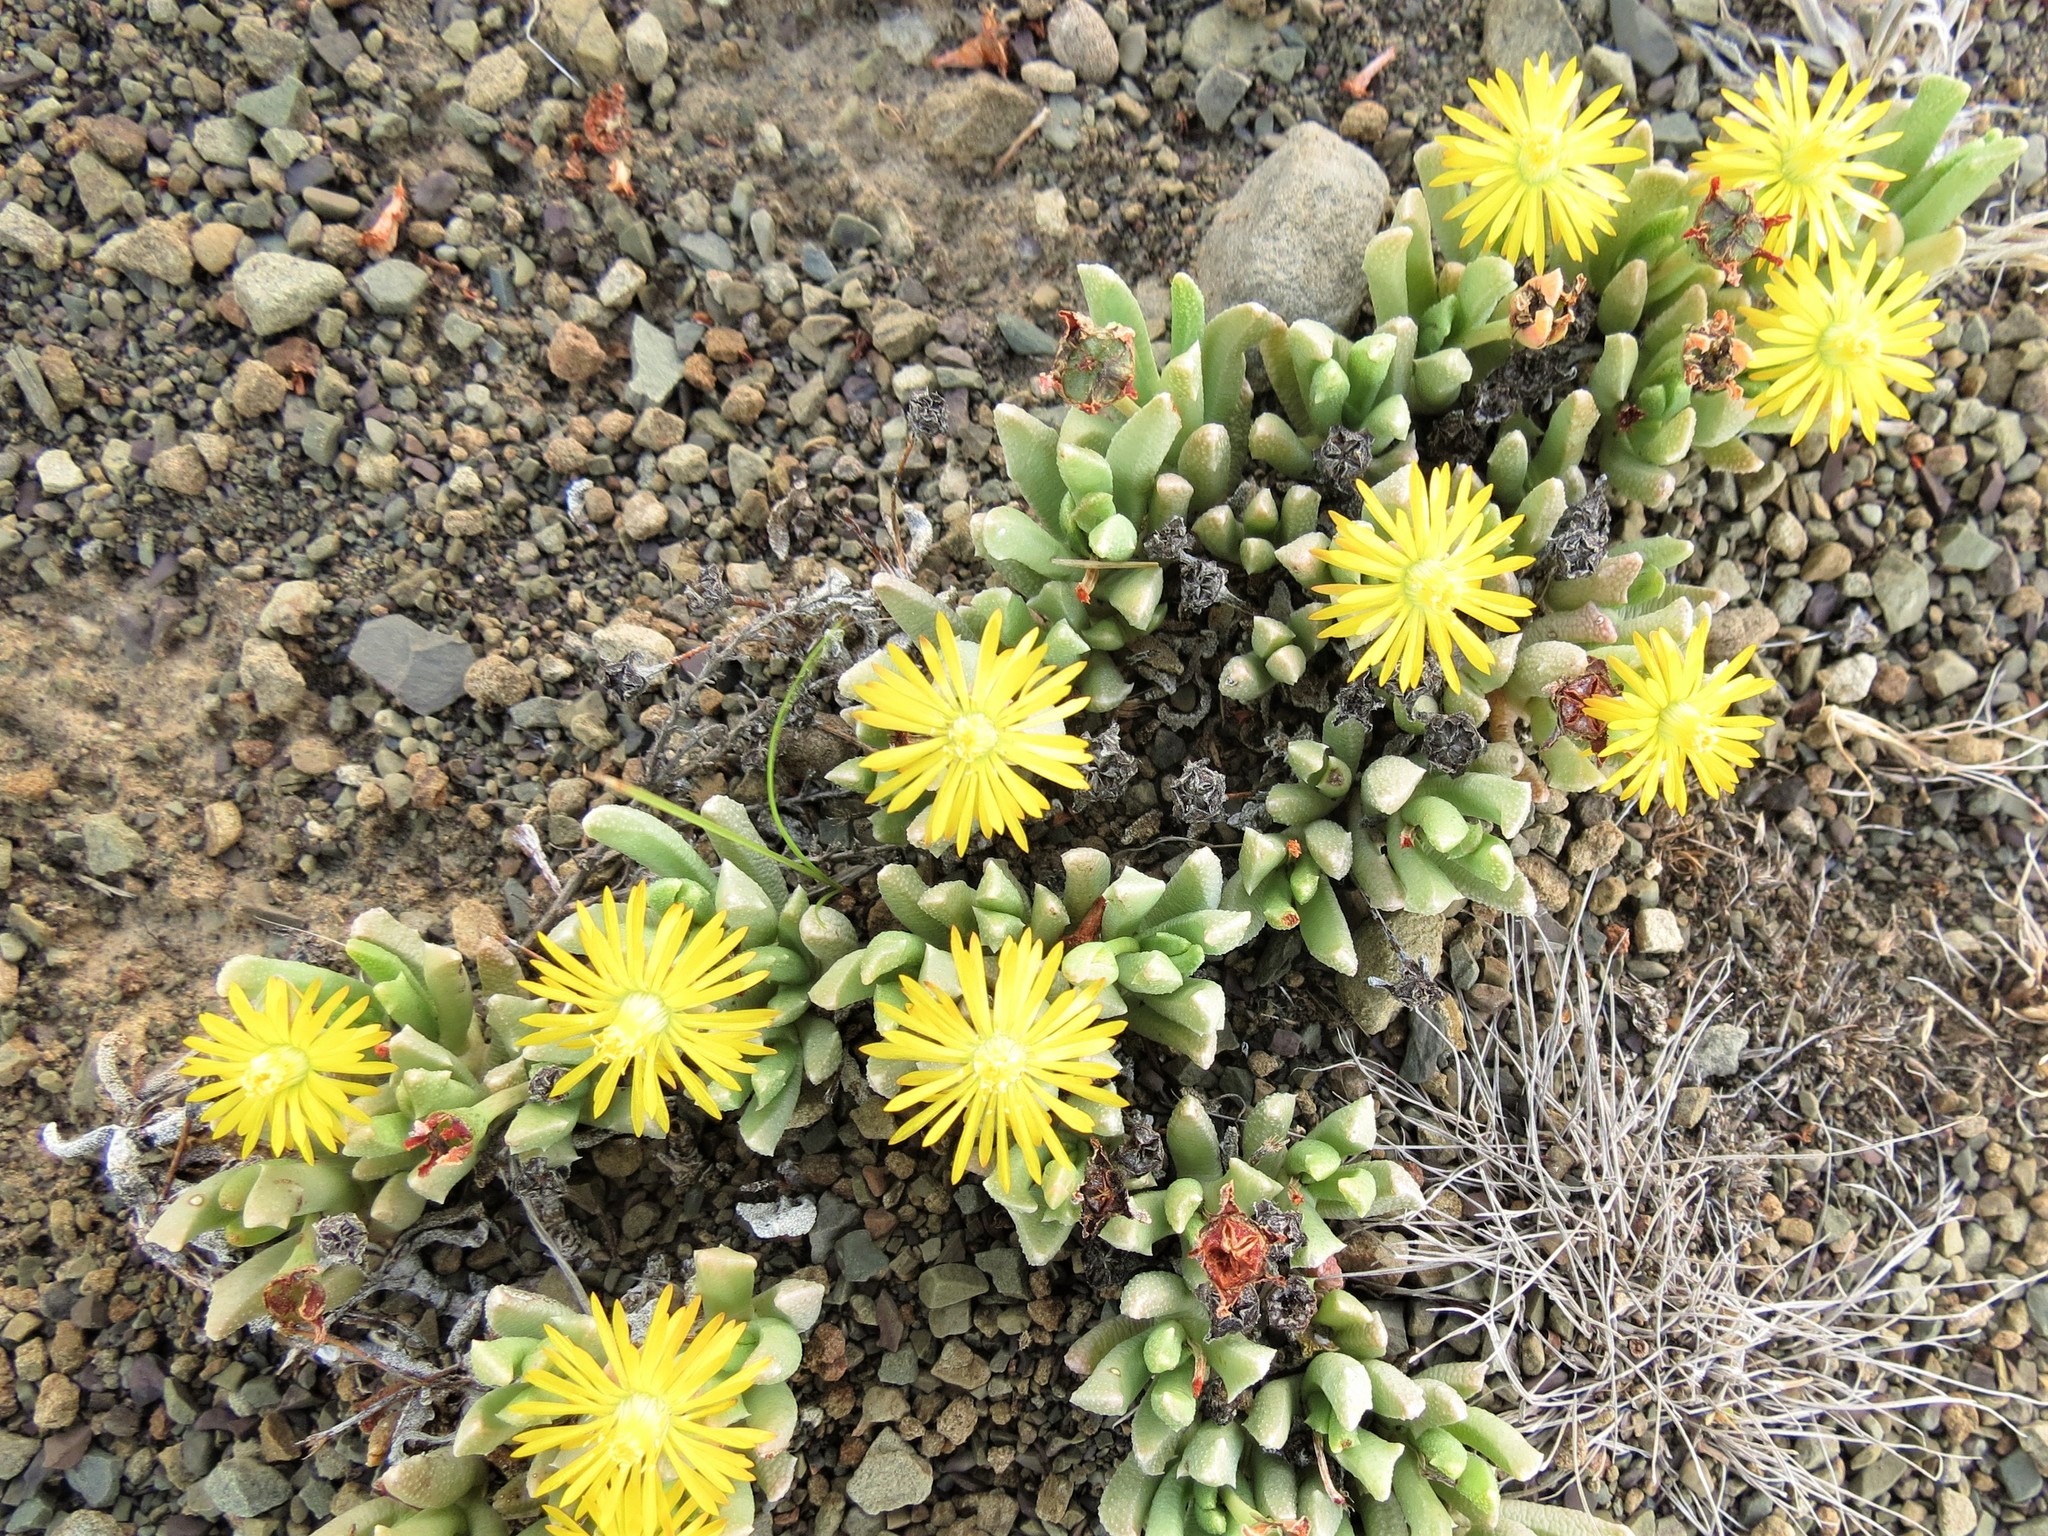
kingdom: Plantae
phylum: Tracheophyta
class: Magnoliopsida
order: Caryophyllales
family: Aizoaceae
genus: Dracophilus
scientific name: Dracophilus Chasmatophyllum musculinum
